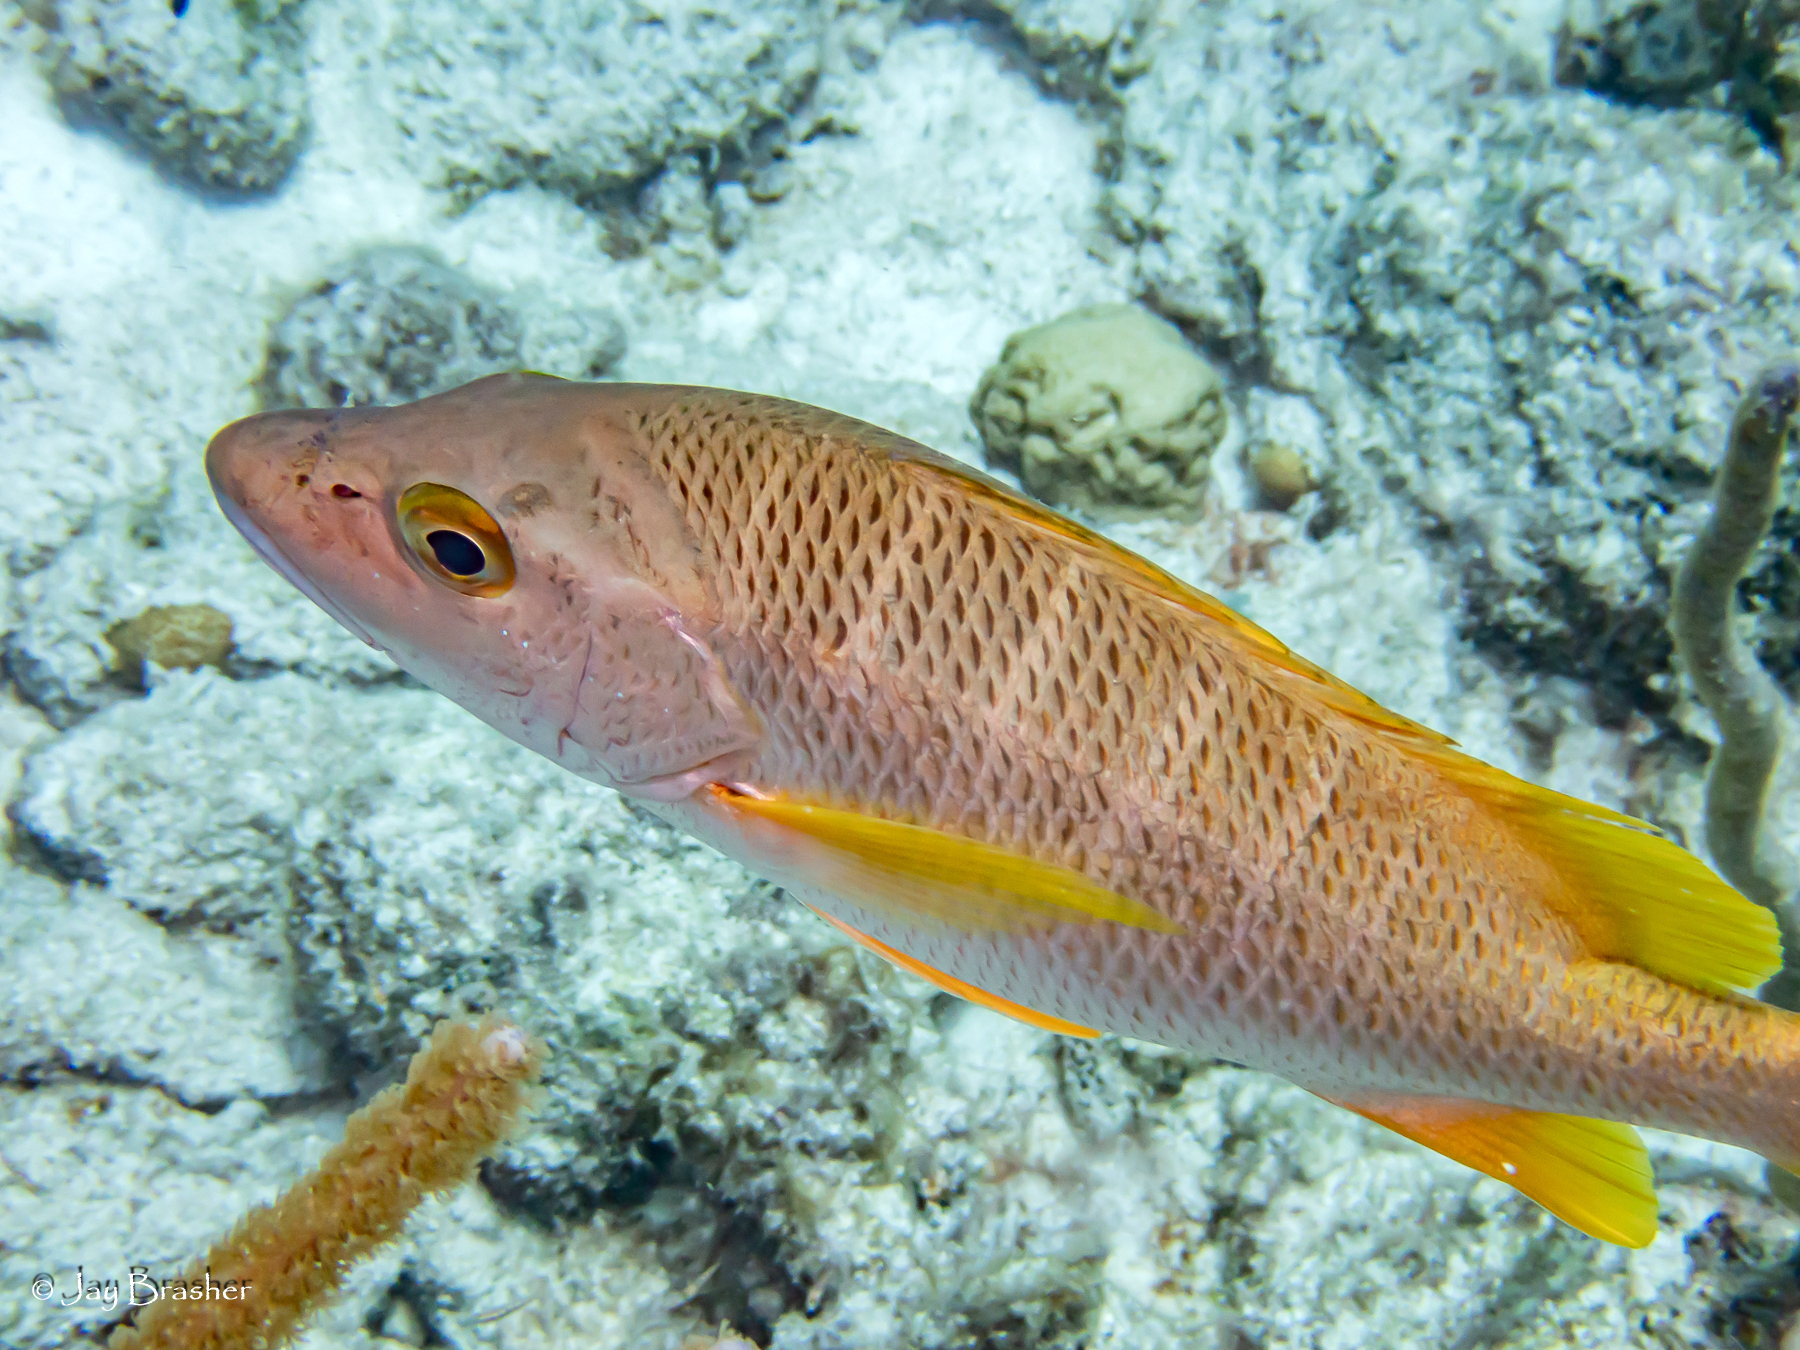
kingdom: Animalia
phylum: Chordata
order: Perciformes
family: Lutjanidae
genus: Lutjanus
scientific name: Lutjanus apodus
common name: Schoolmaster
